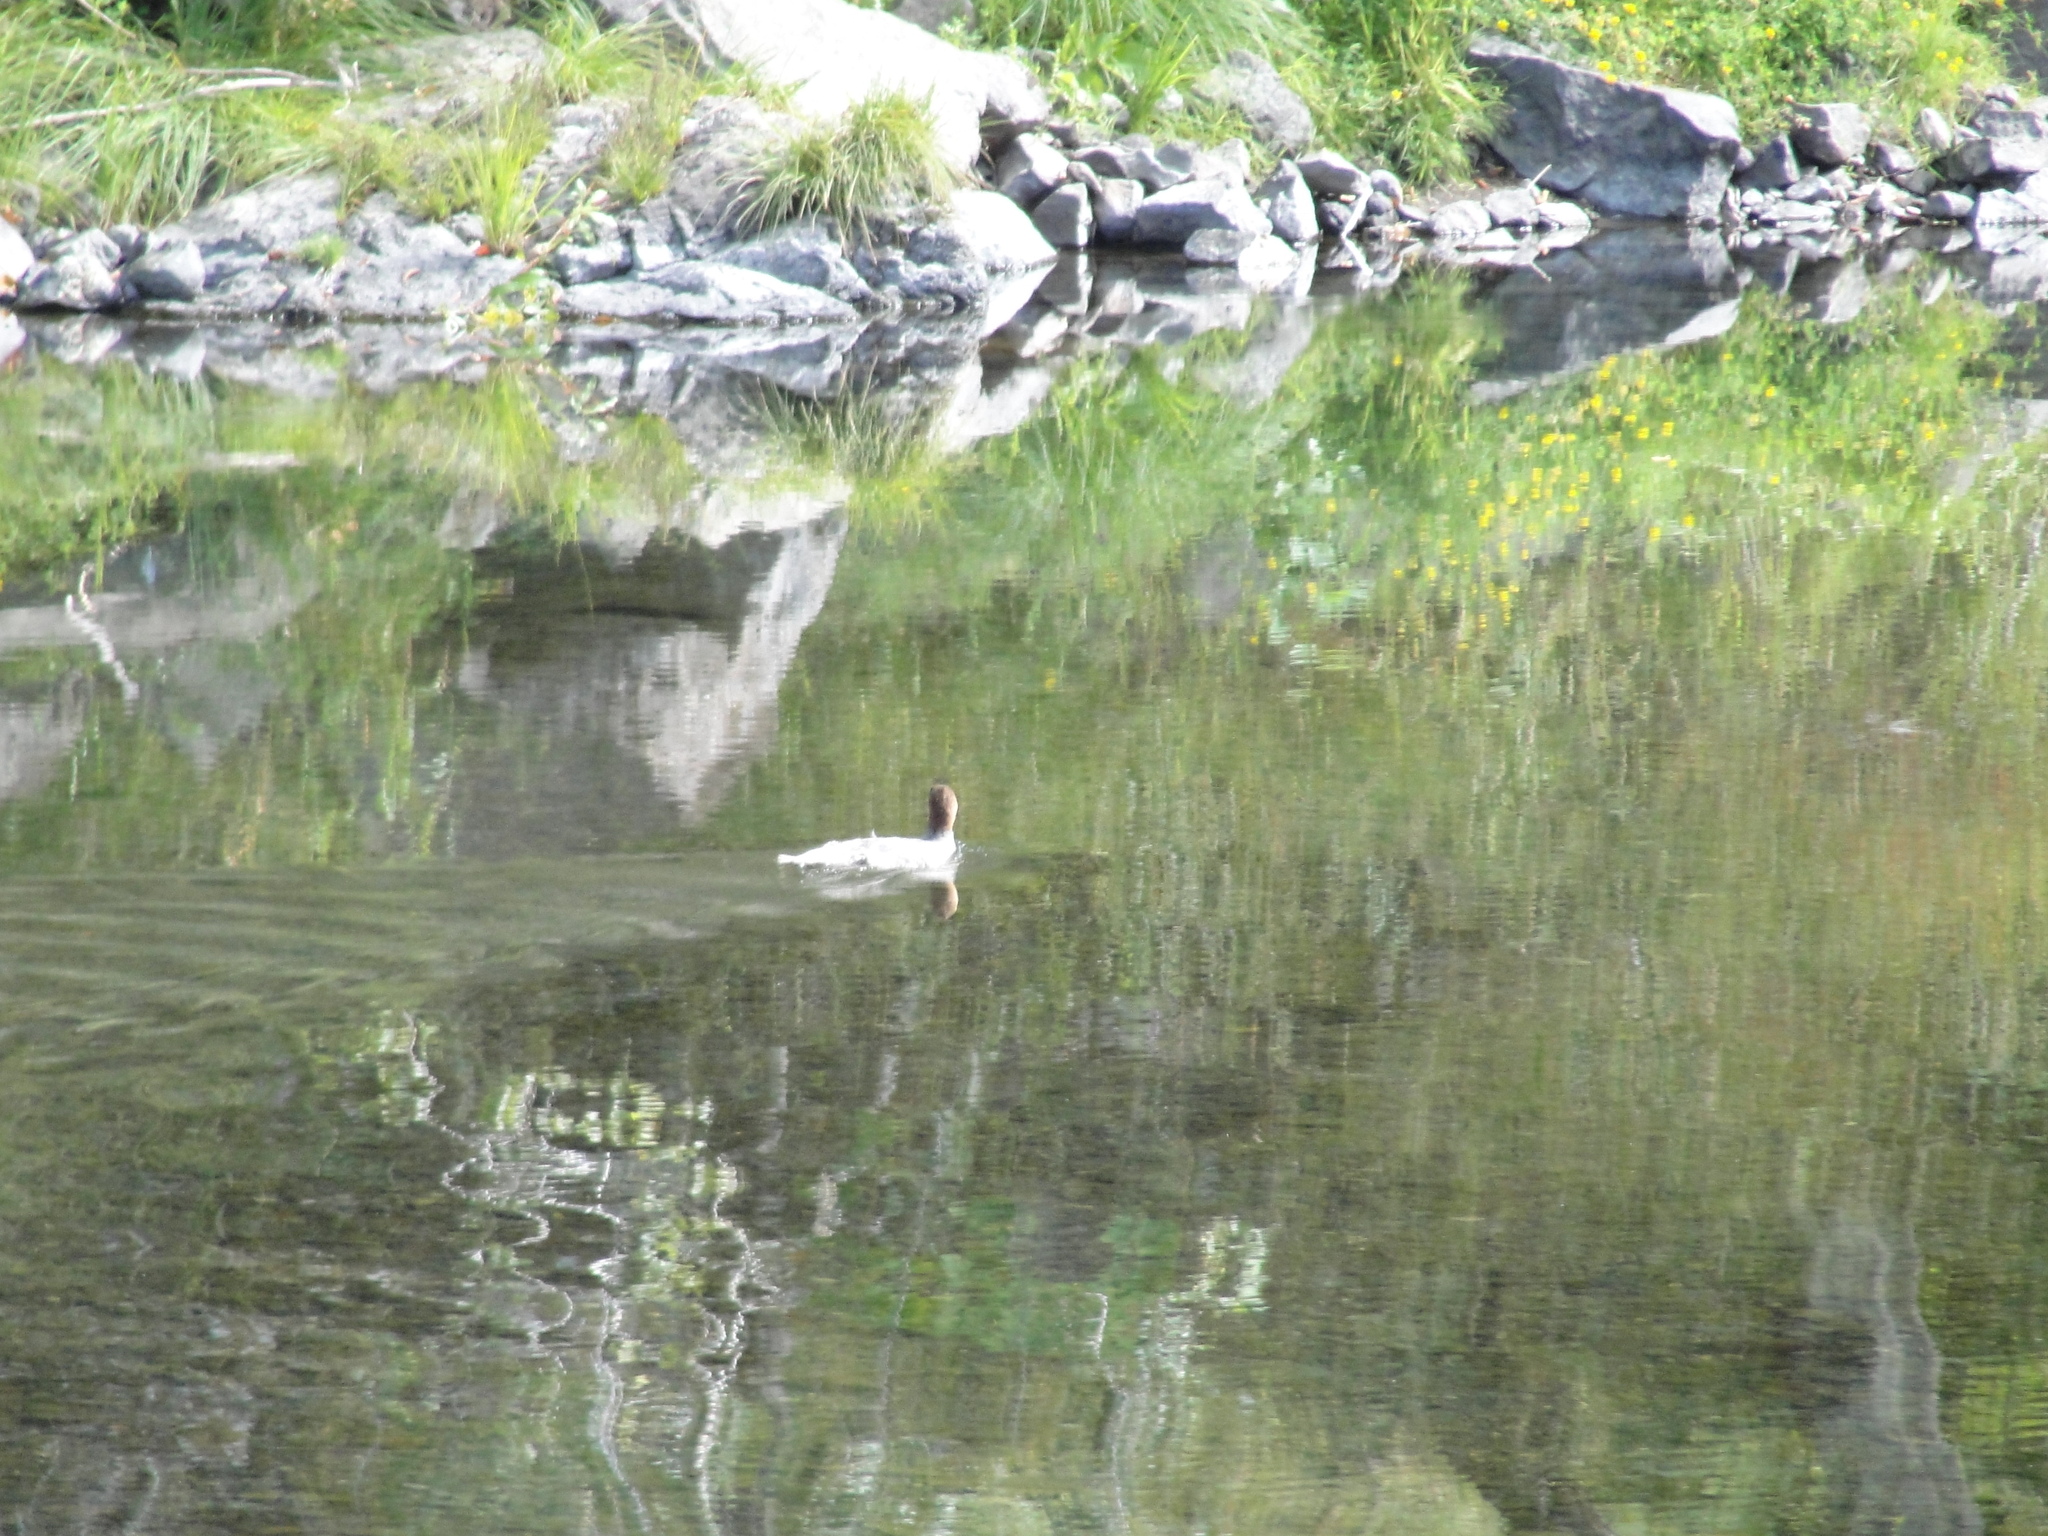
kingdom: Animalia
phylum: Chordata
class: Aves
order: Anseriformes
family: Anatidae
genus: Mergus
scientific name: Mergus merganser
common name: Common merganser
